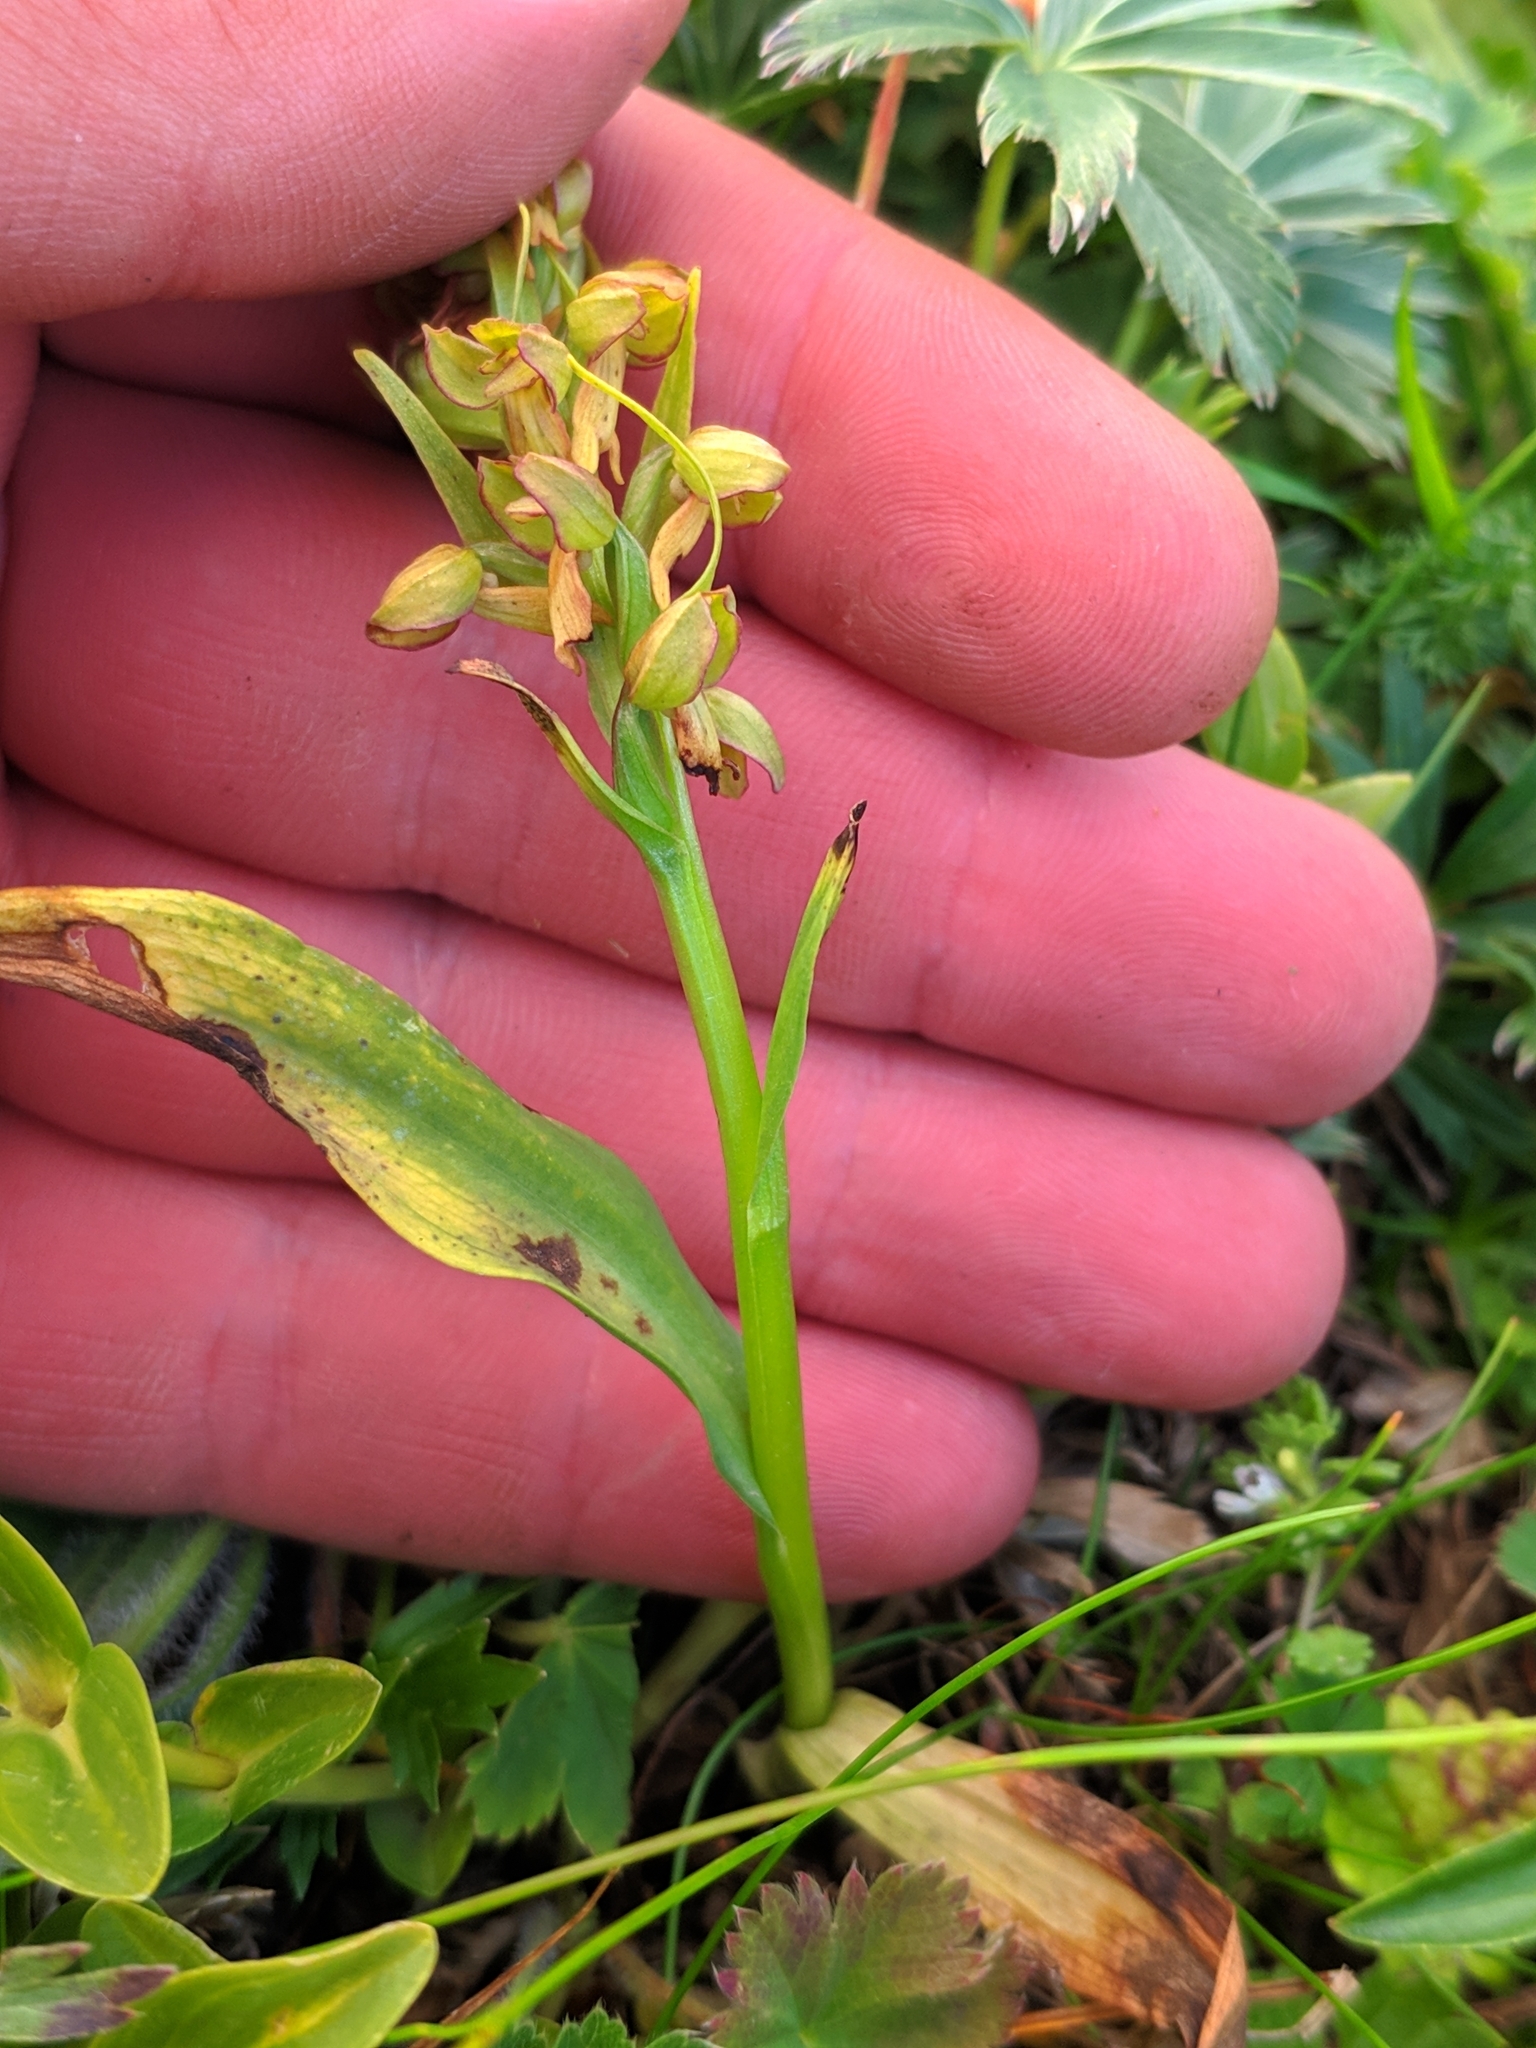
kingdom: Plantae
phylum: Tracheophyta
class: Liliopsida
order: Asparagales
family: Orchidaceae
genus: Dactylorhiza
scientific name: Dactylorhiza viridis
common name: Longbract frog orchid
